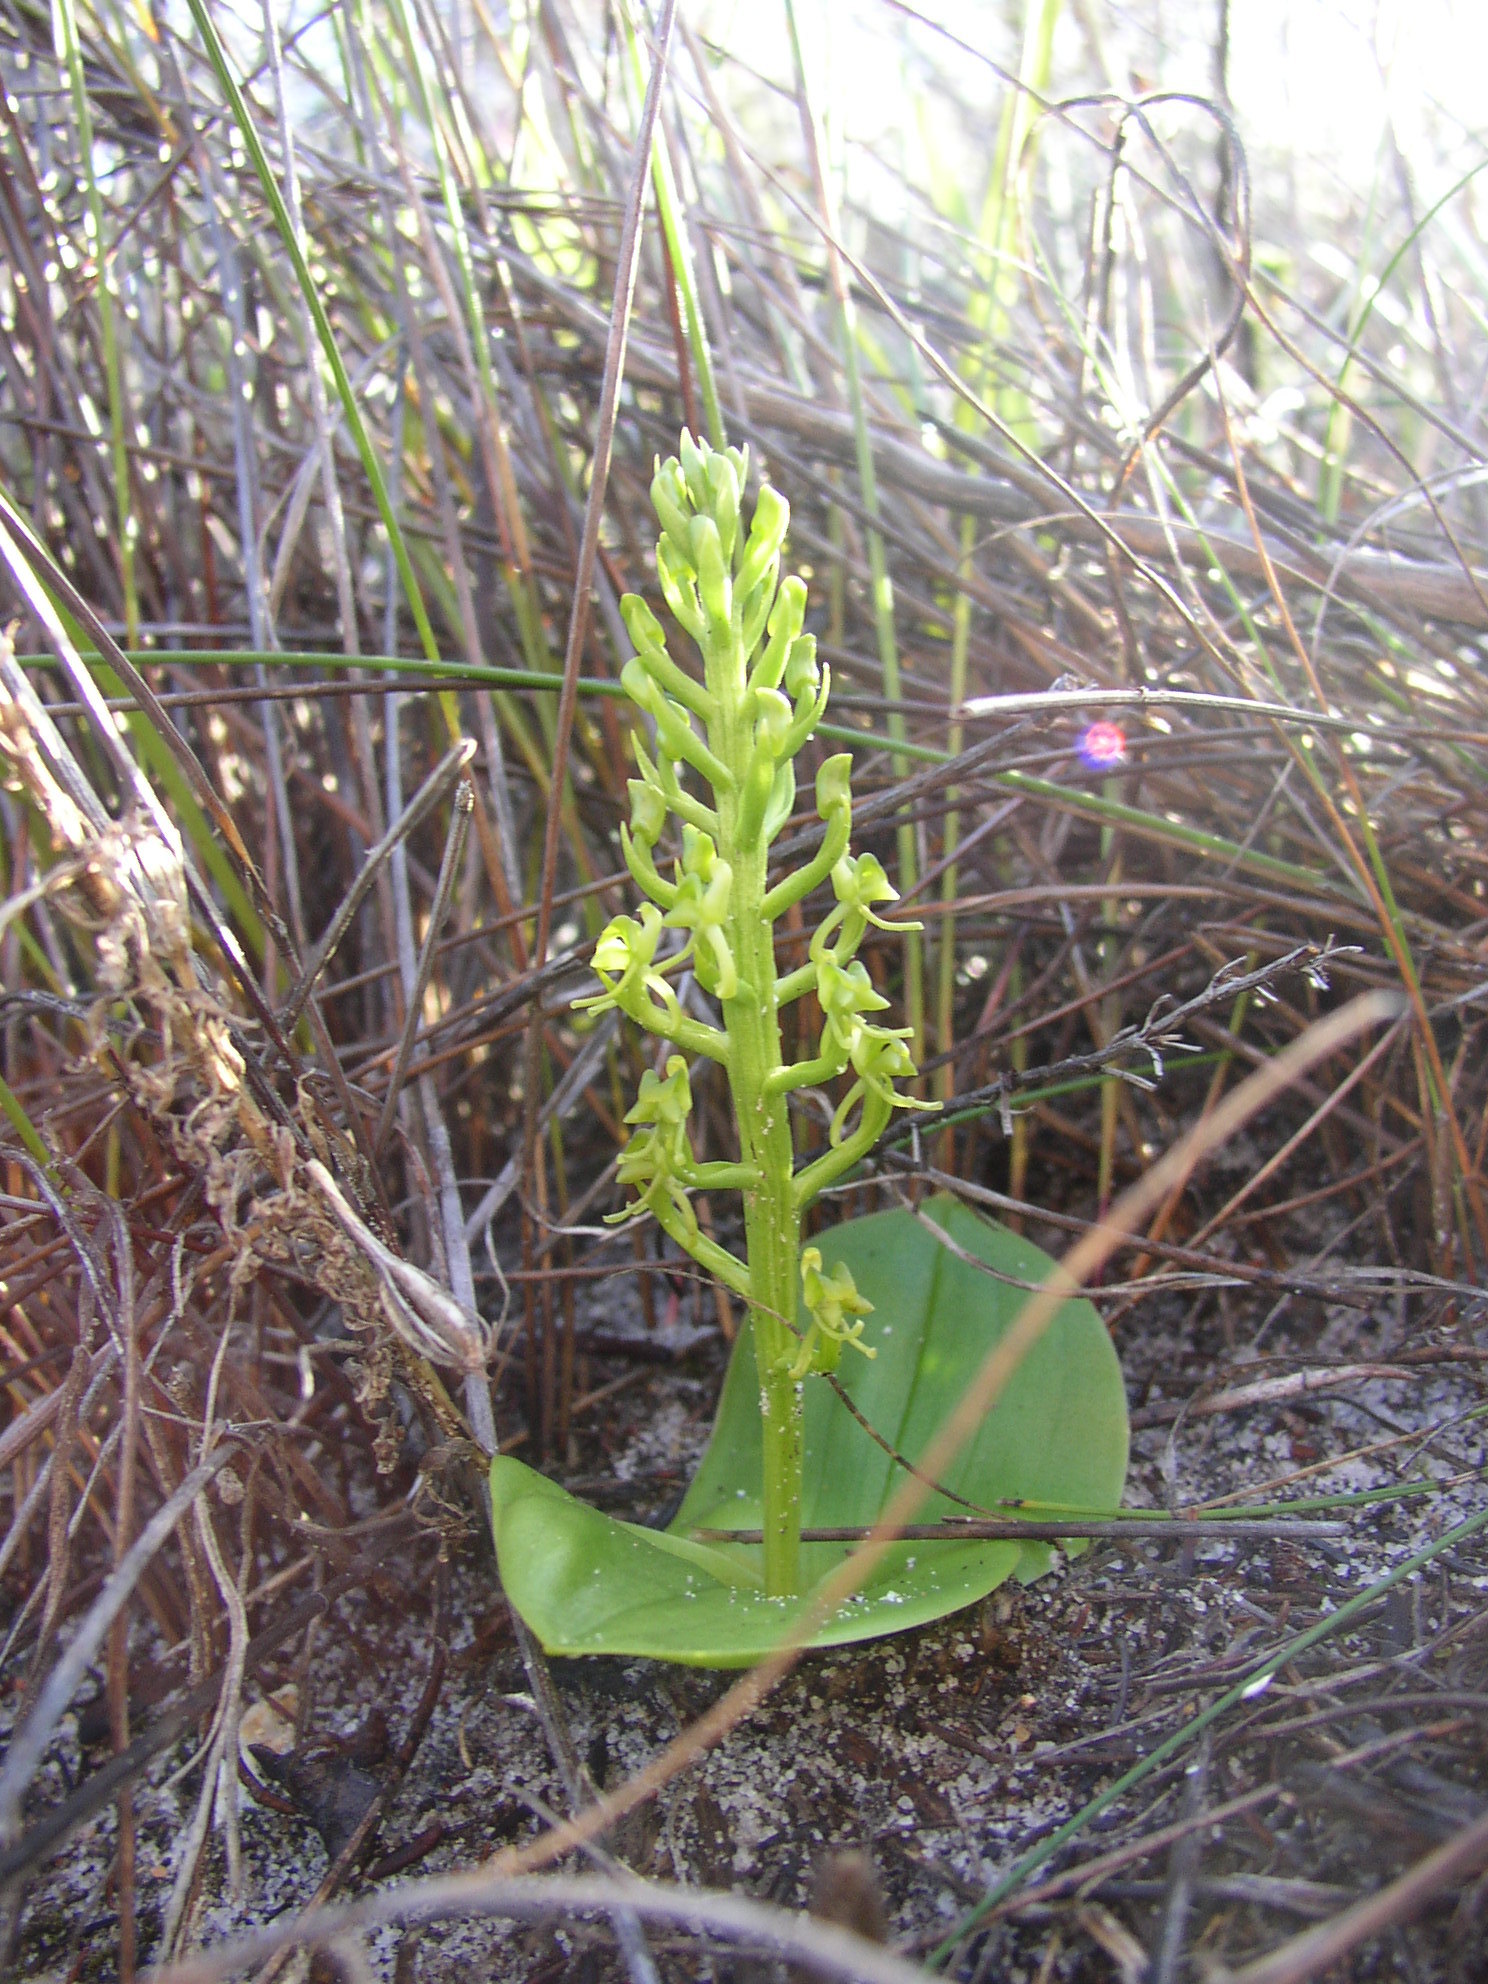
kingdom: Plantae
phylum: Tracheophyta
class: Liliopsida
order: Asparagales
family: Orchidaceae
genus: Liparis
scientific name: Liparis capensis
